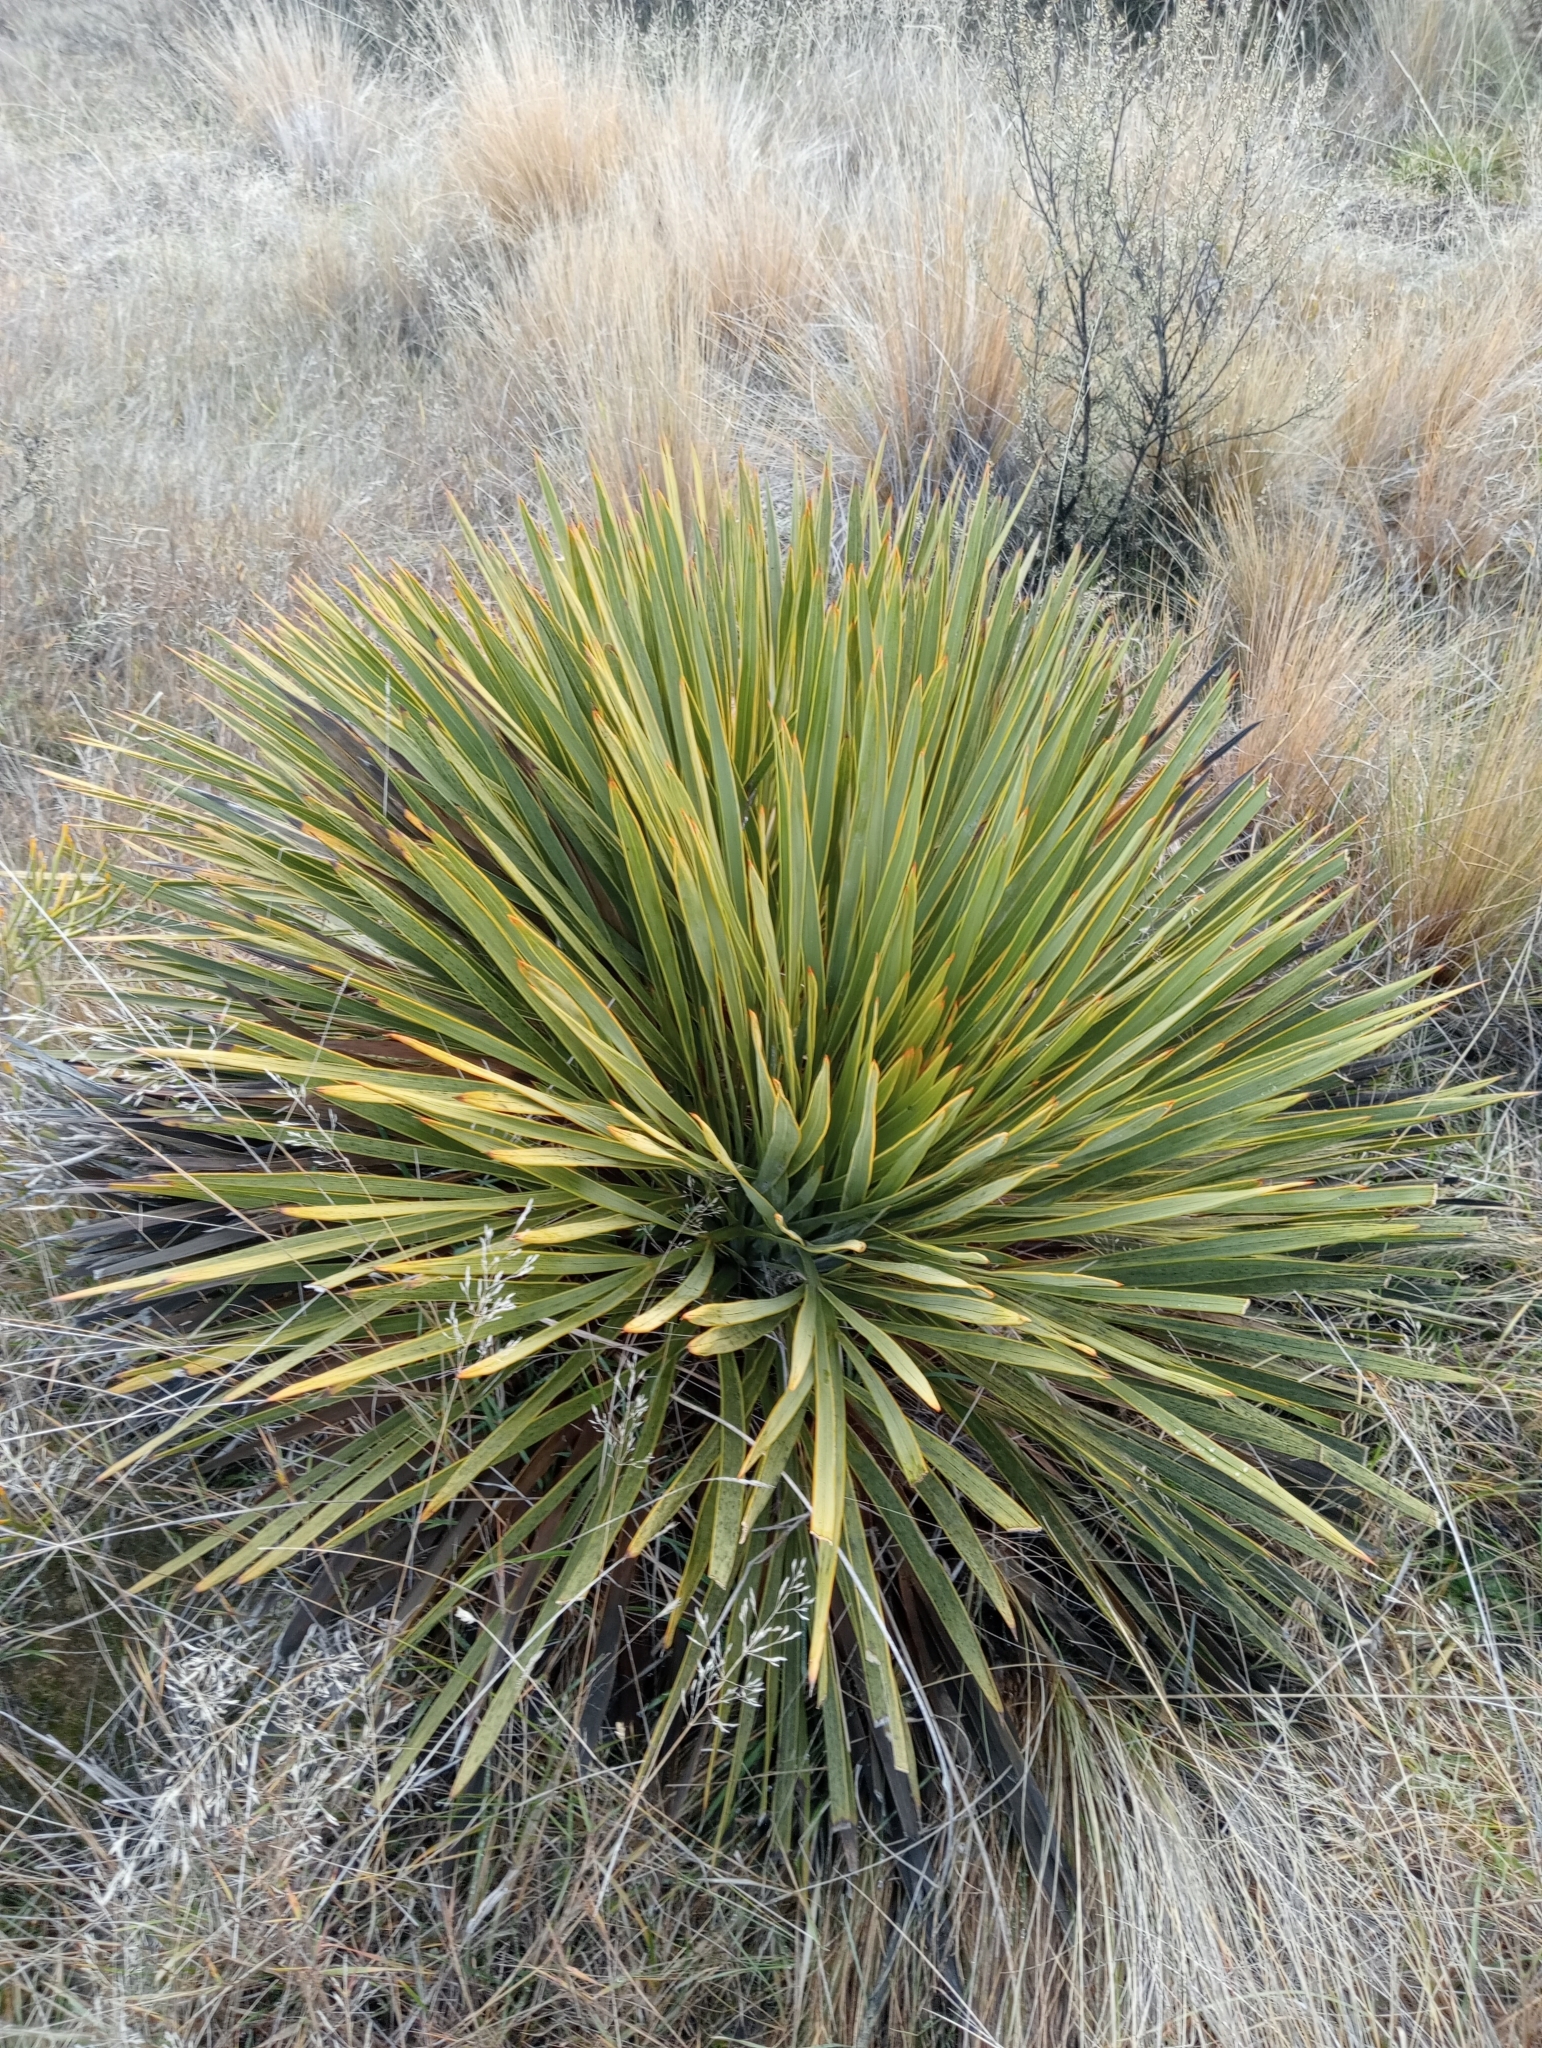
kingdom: Plantae
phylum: Tracheophyta
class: Magnoliopsida
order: Apiales
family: Apiaceae
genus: Aciphylla
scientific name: Aciphylla aurea
